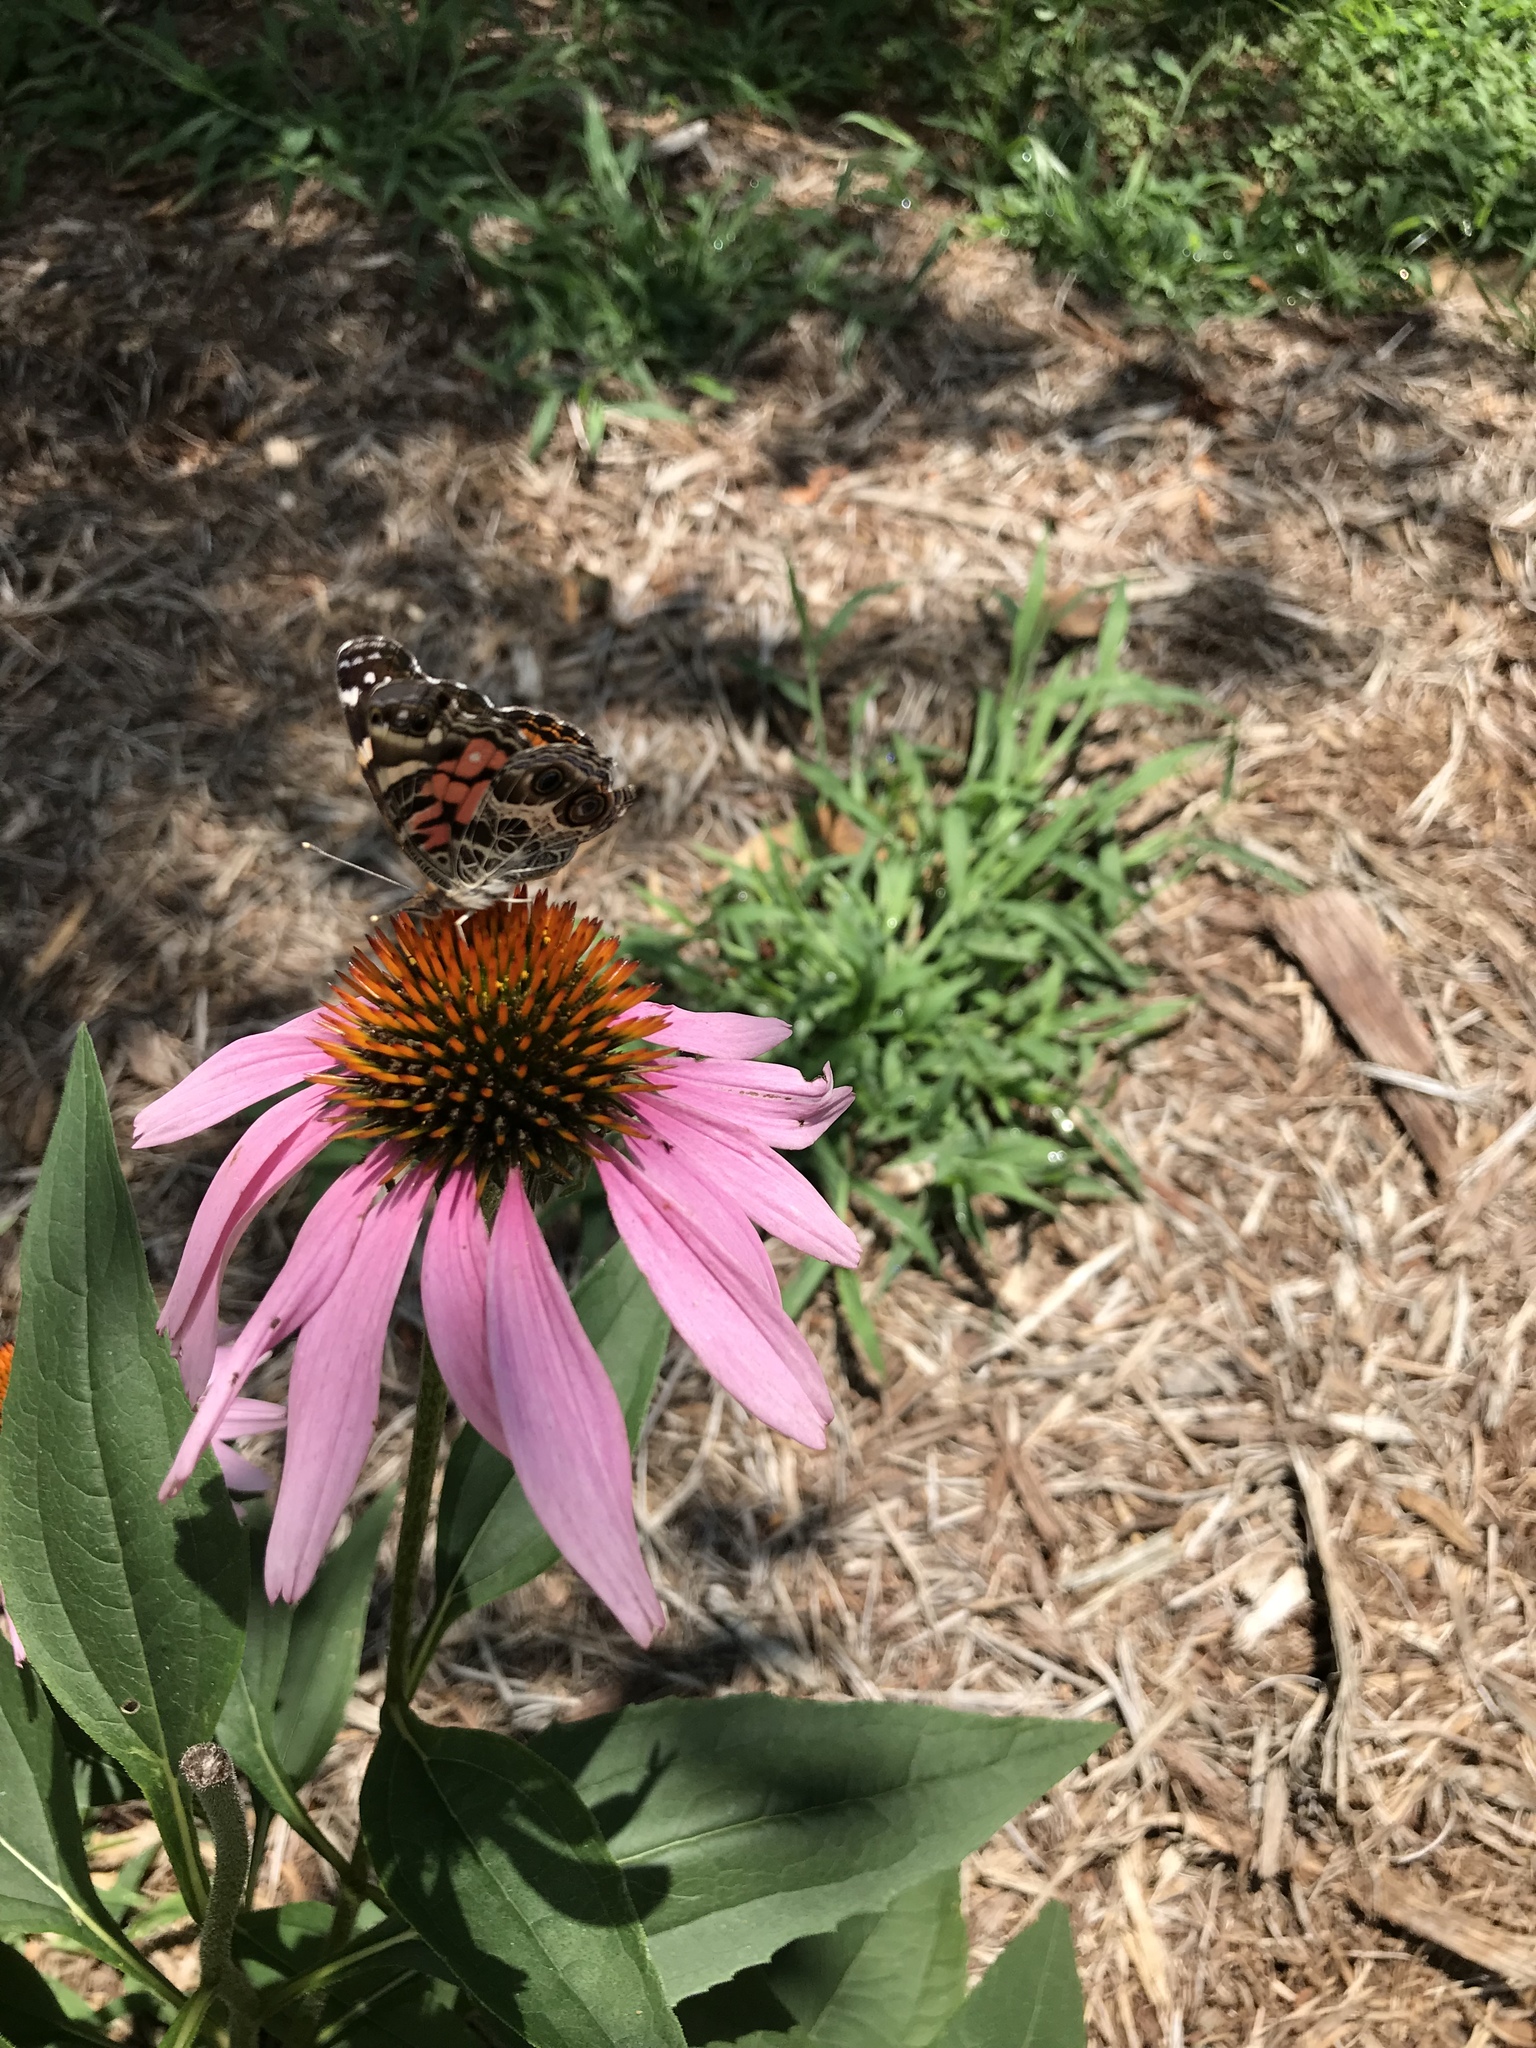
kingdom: Animalia
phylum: Arthropoda
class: Insecta
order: Lepidoptera
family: Nymphalidae
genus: Vanessa
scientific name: Vanessa virginiensis
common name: American lady
